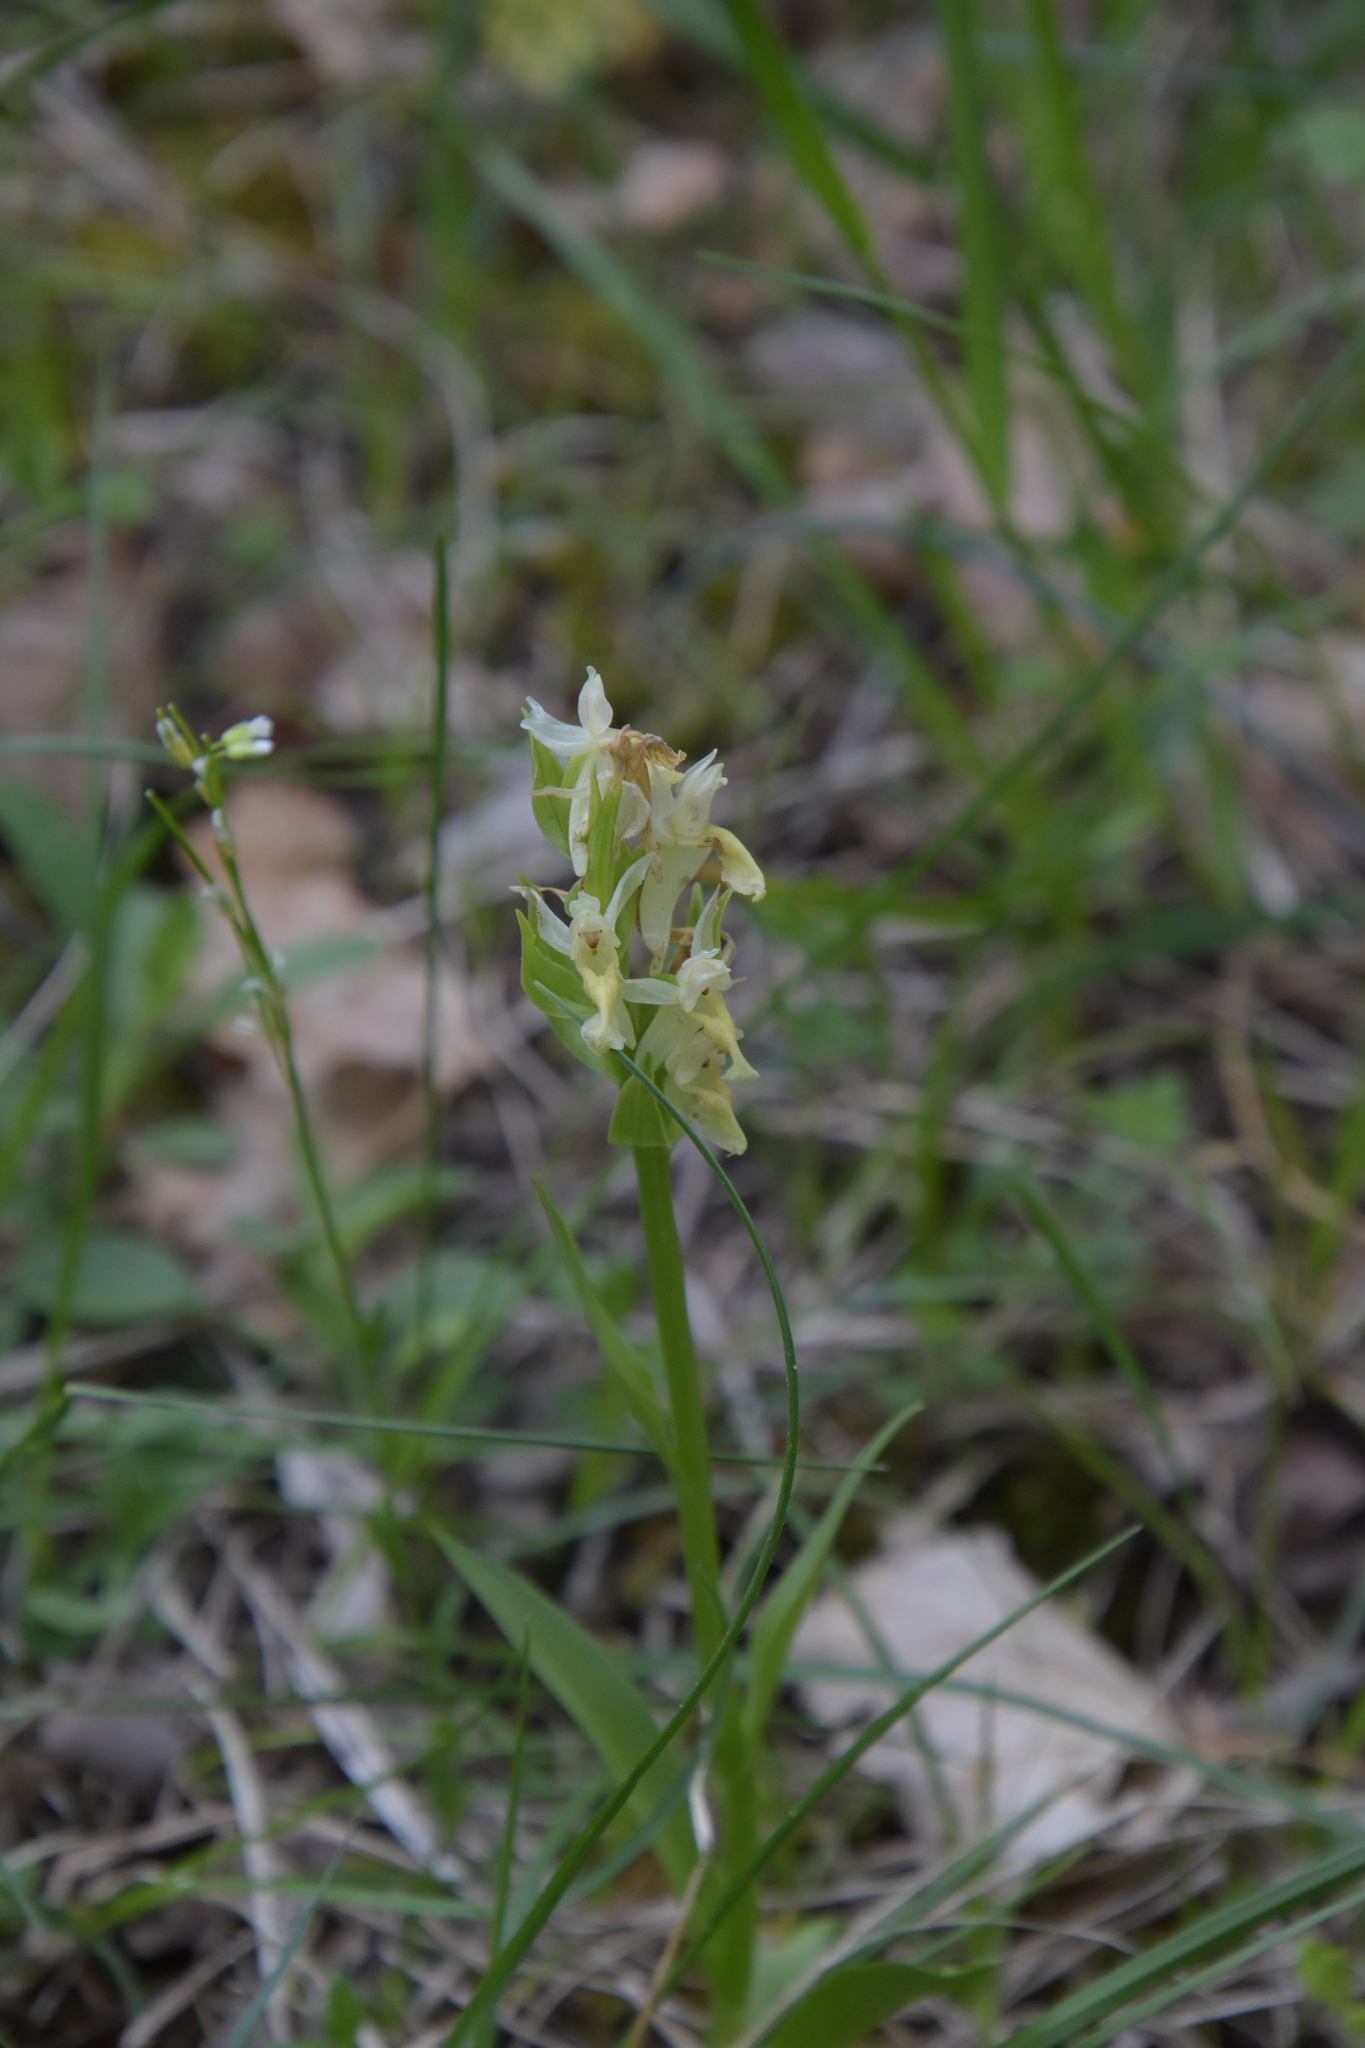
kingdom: Plantae
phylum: Tracheophyta
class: Liliopsida
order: Asparagales
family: Orchidaceae
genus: Dactylorhiza
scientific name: Dactylorhiza sambucina
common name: Elder-flowered orchid
